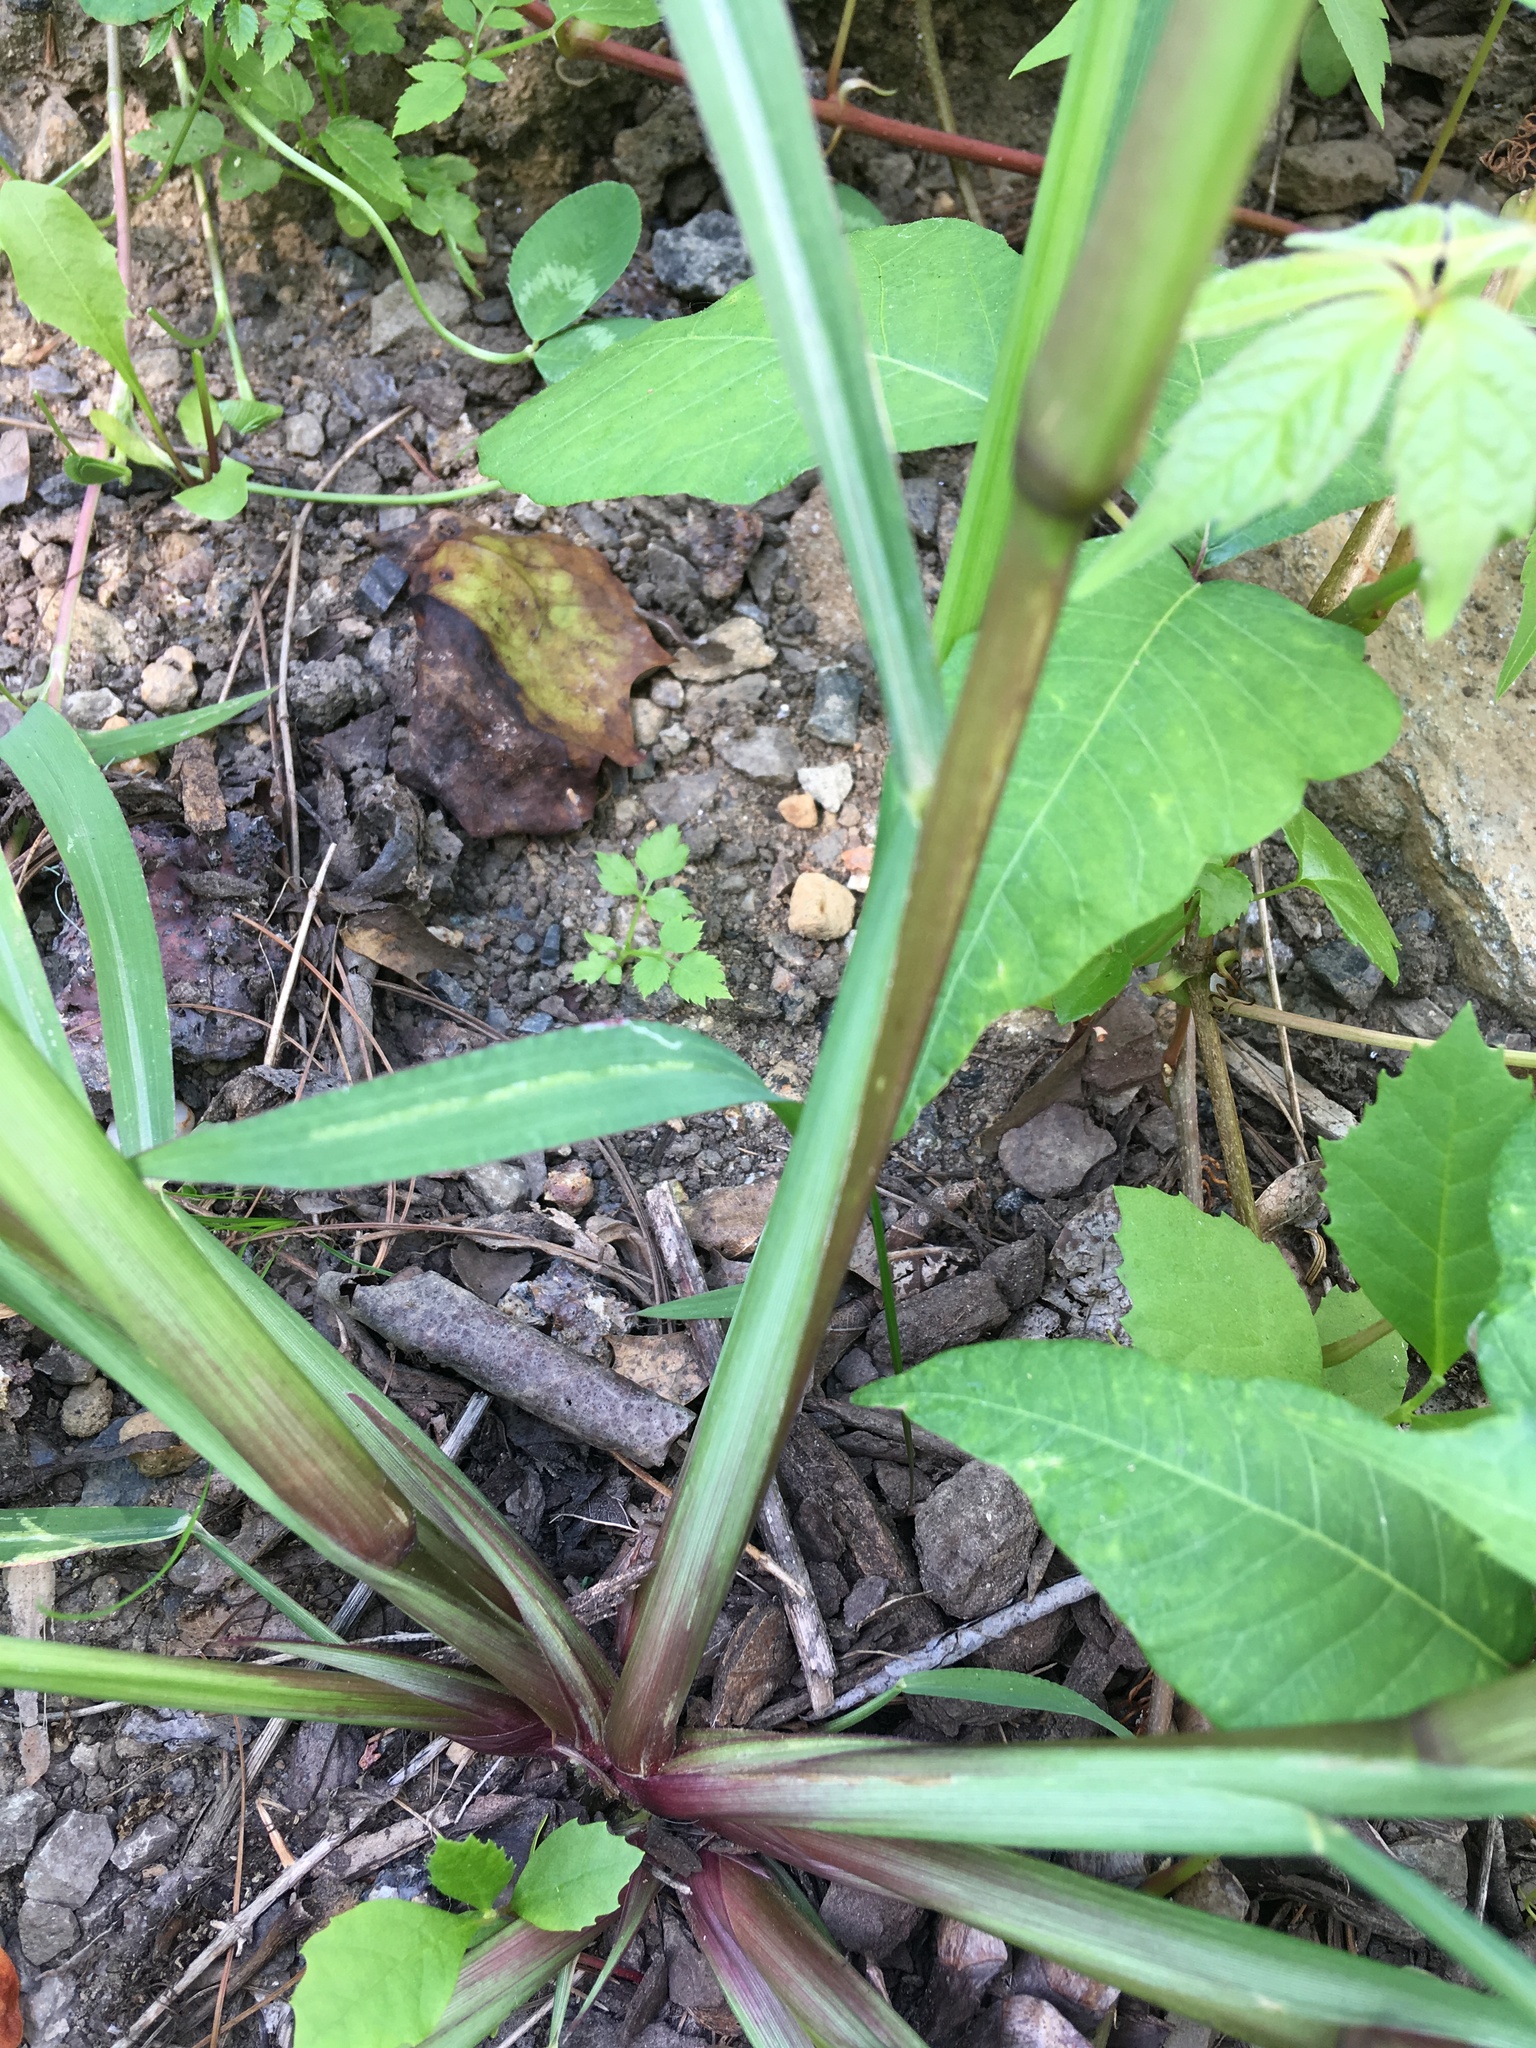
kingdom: Plantae
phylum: Tracheophyta
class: Liliopsida
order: Poales
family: Poaceae
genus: Echinochloa
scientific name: Echinochloa crus-galli
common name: Cockspur
